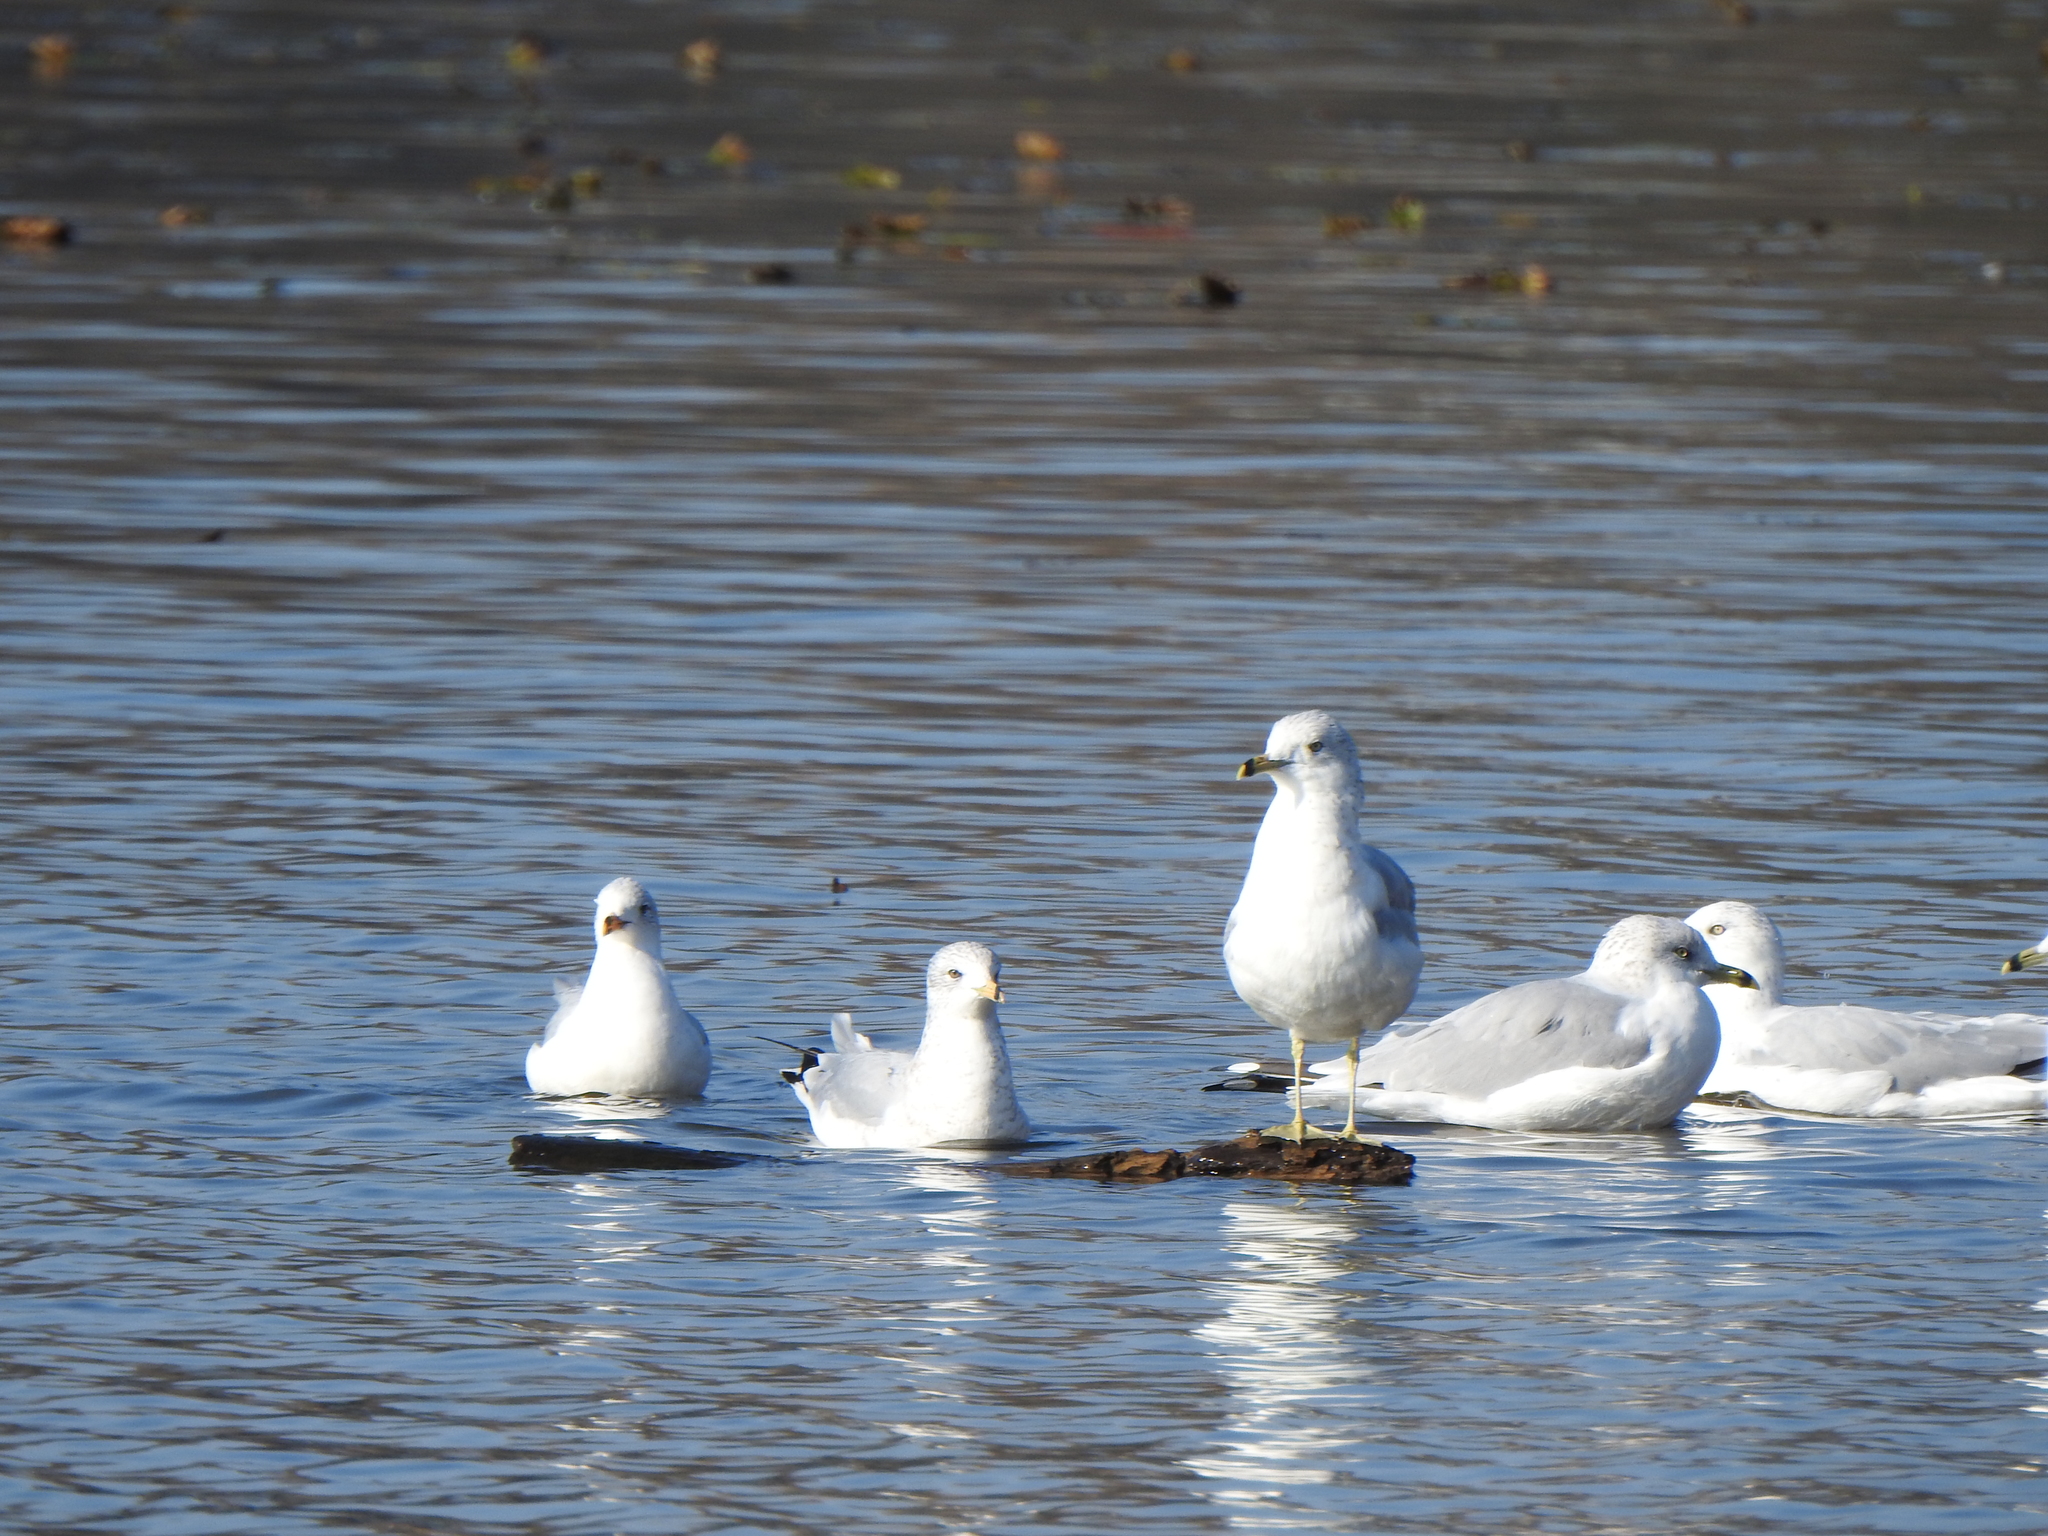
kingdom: Animalia
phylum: Chordata
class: Aves
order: Charadriiformes
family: Laridae
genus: Larus
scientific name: Larus delawarensis
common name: Ring-billed gull
